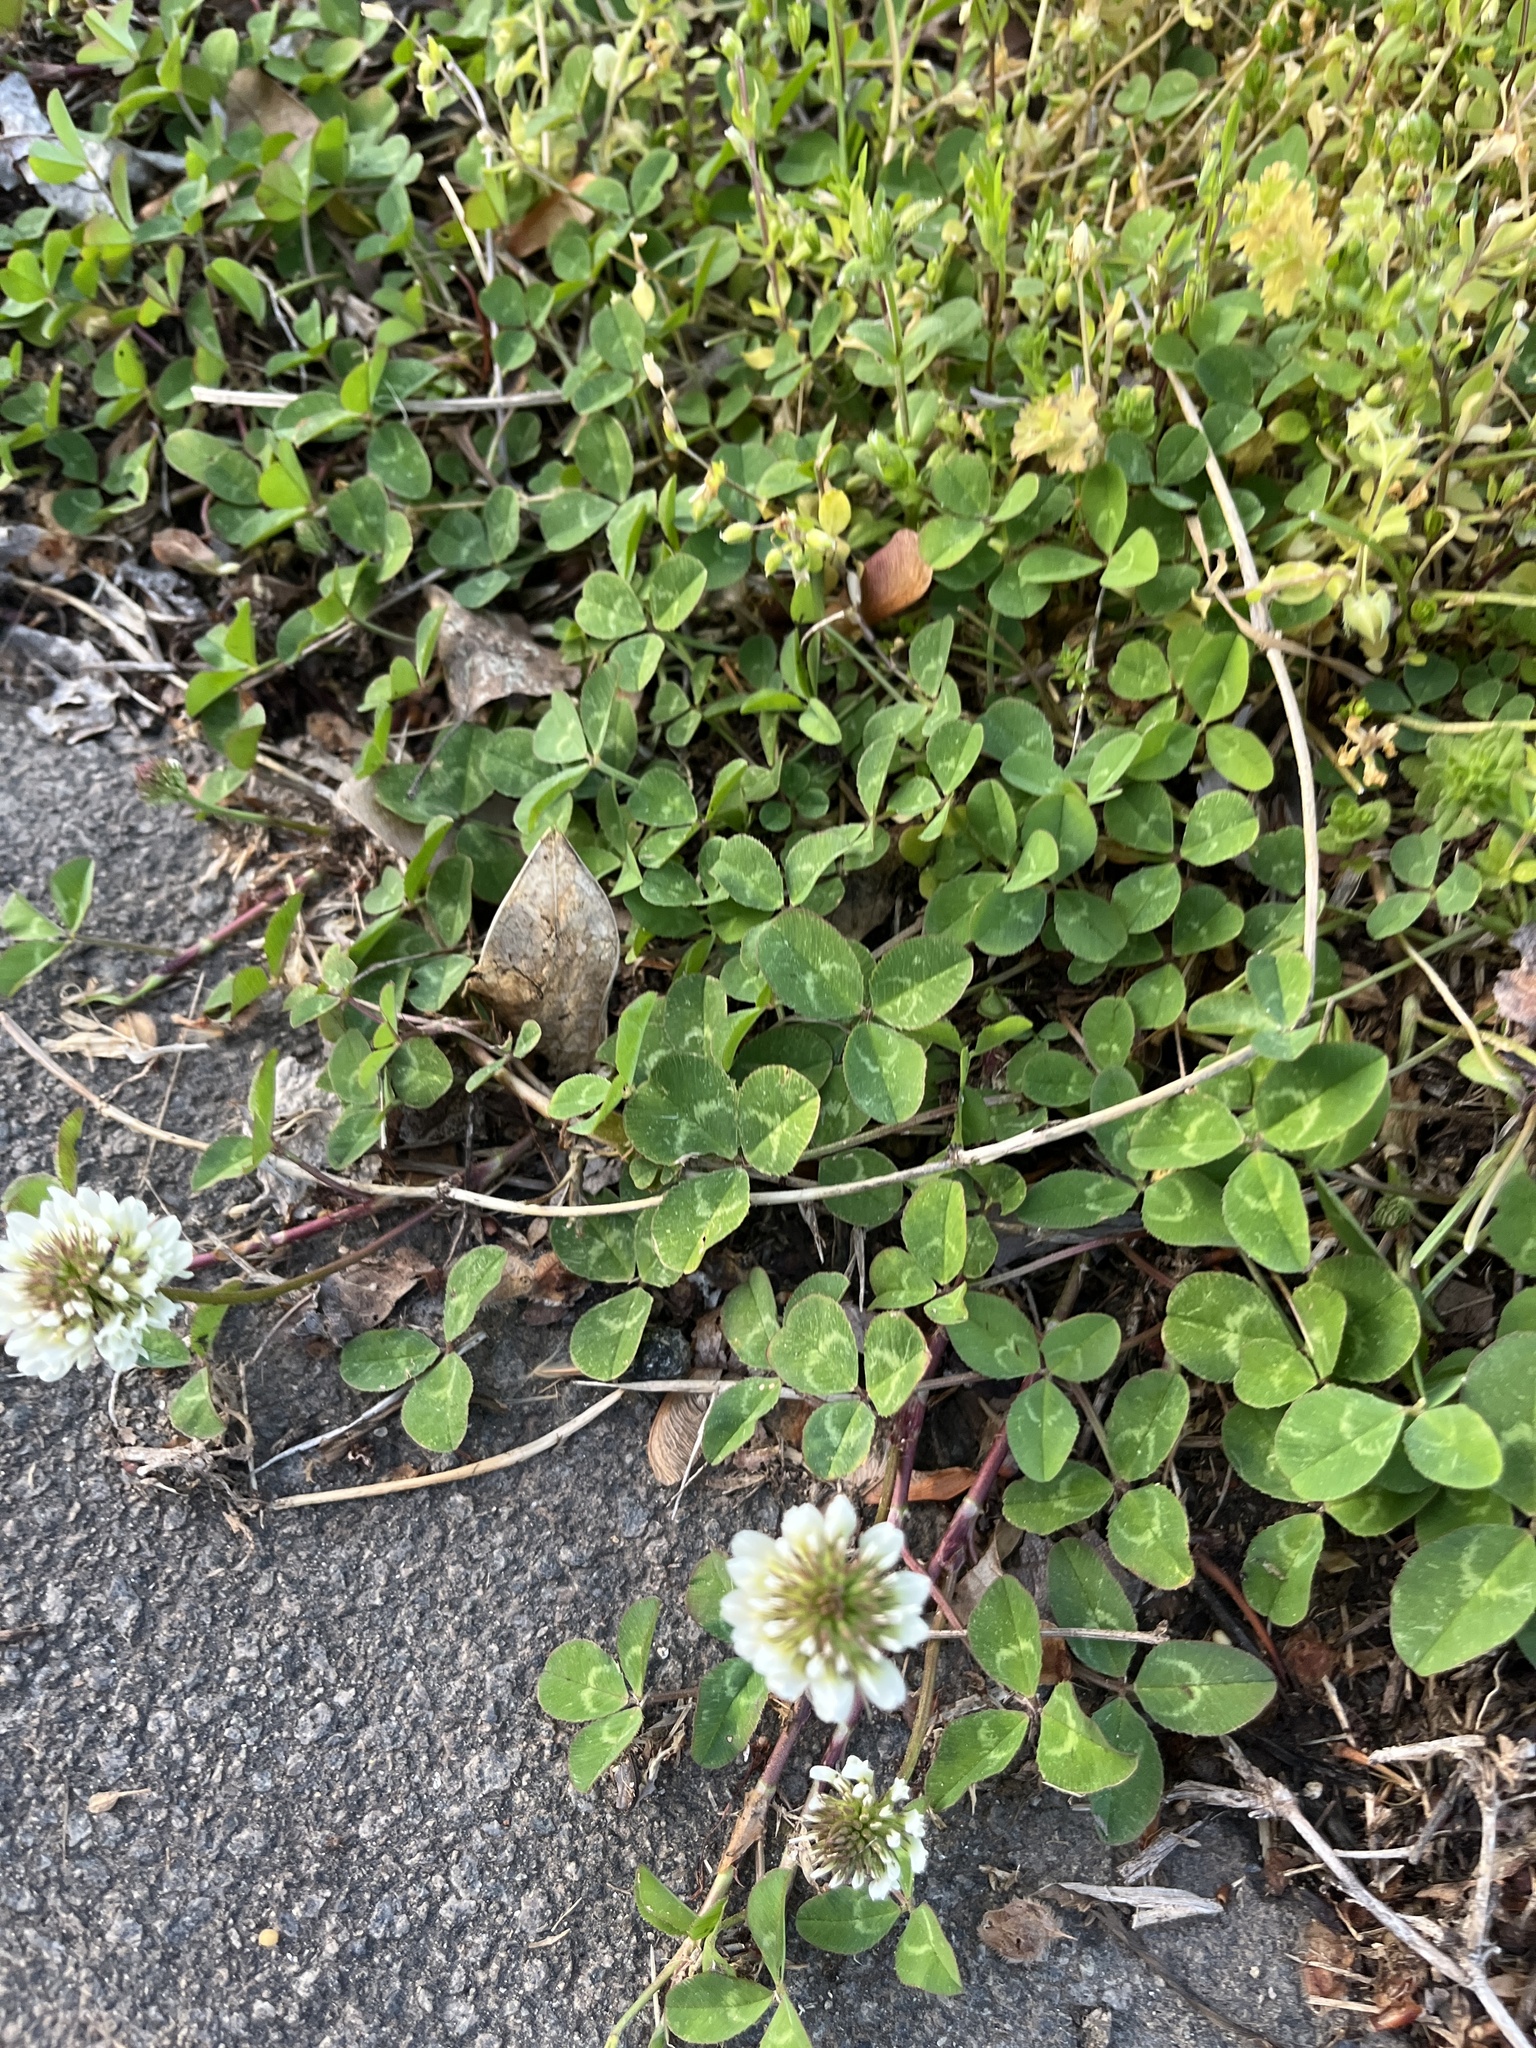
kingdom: Plantae
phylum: Tracheophyta
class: Magnoliopsida
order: Fabales
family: Fabaceae
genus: Trifolium
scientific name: Trifolium repens
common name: White clover
